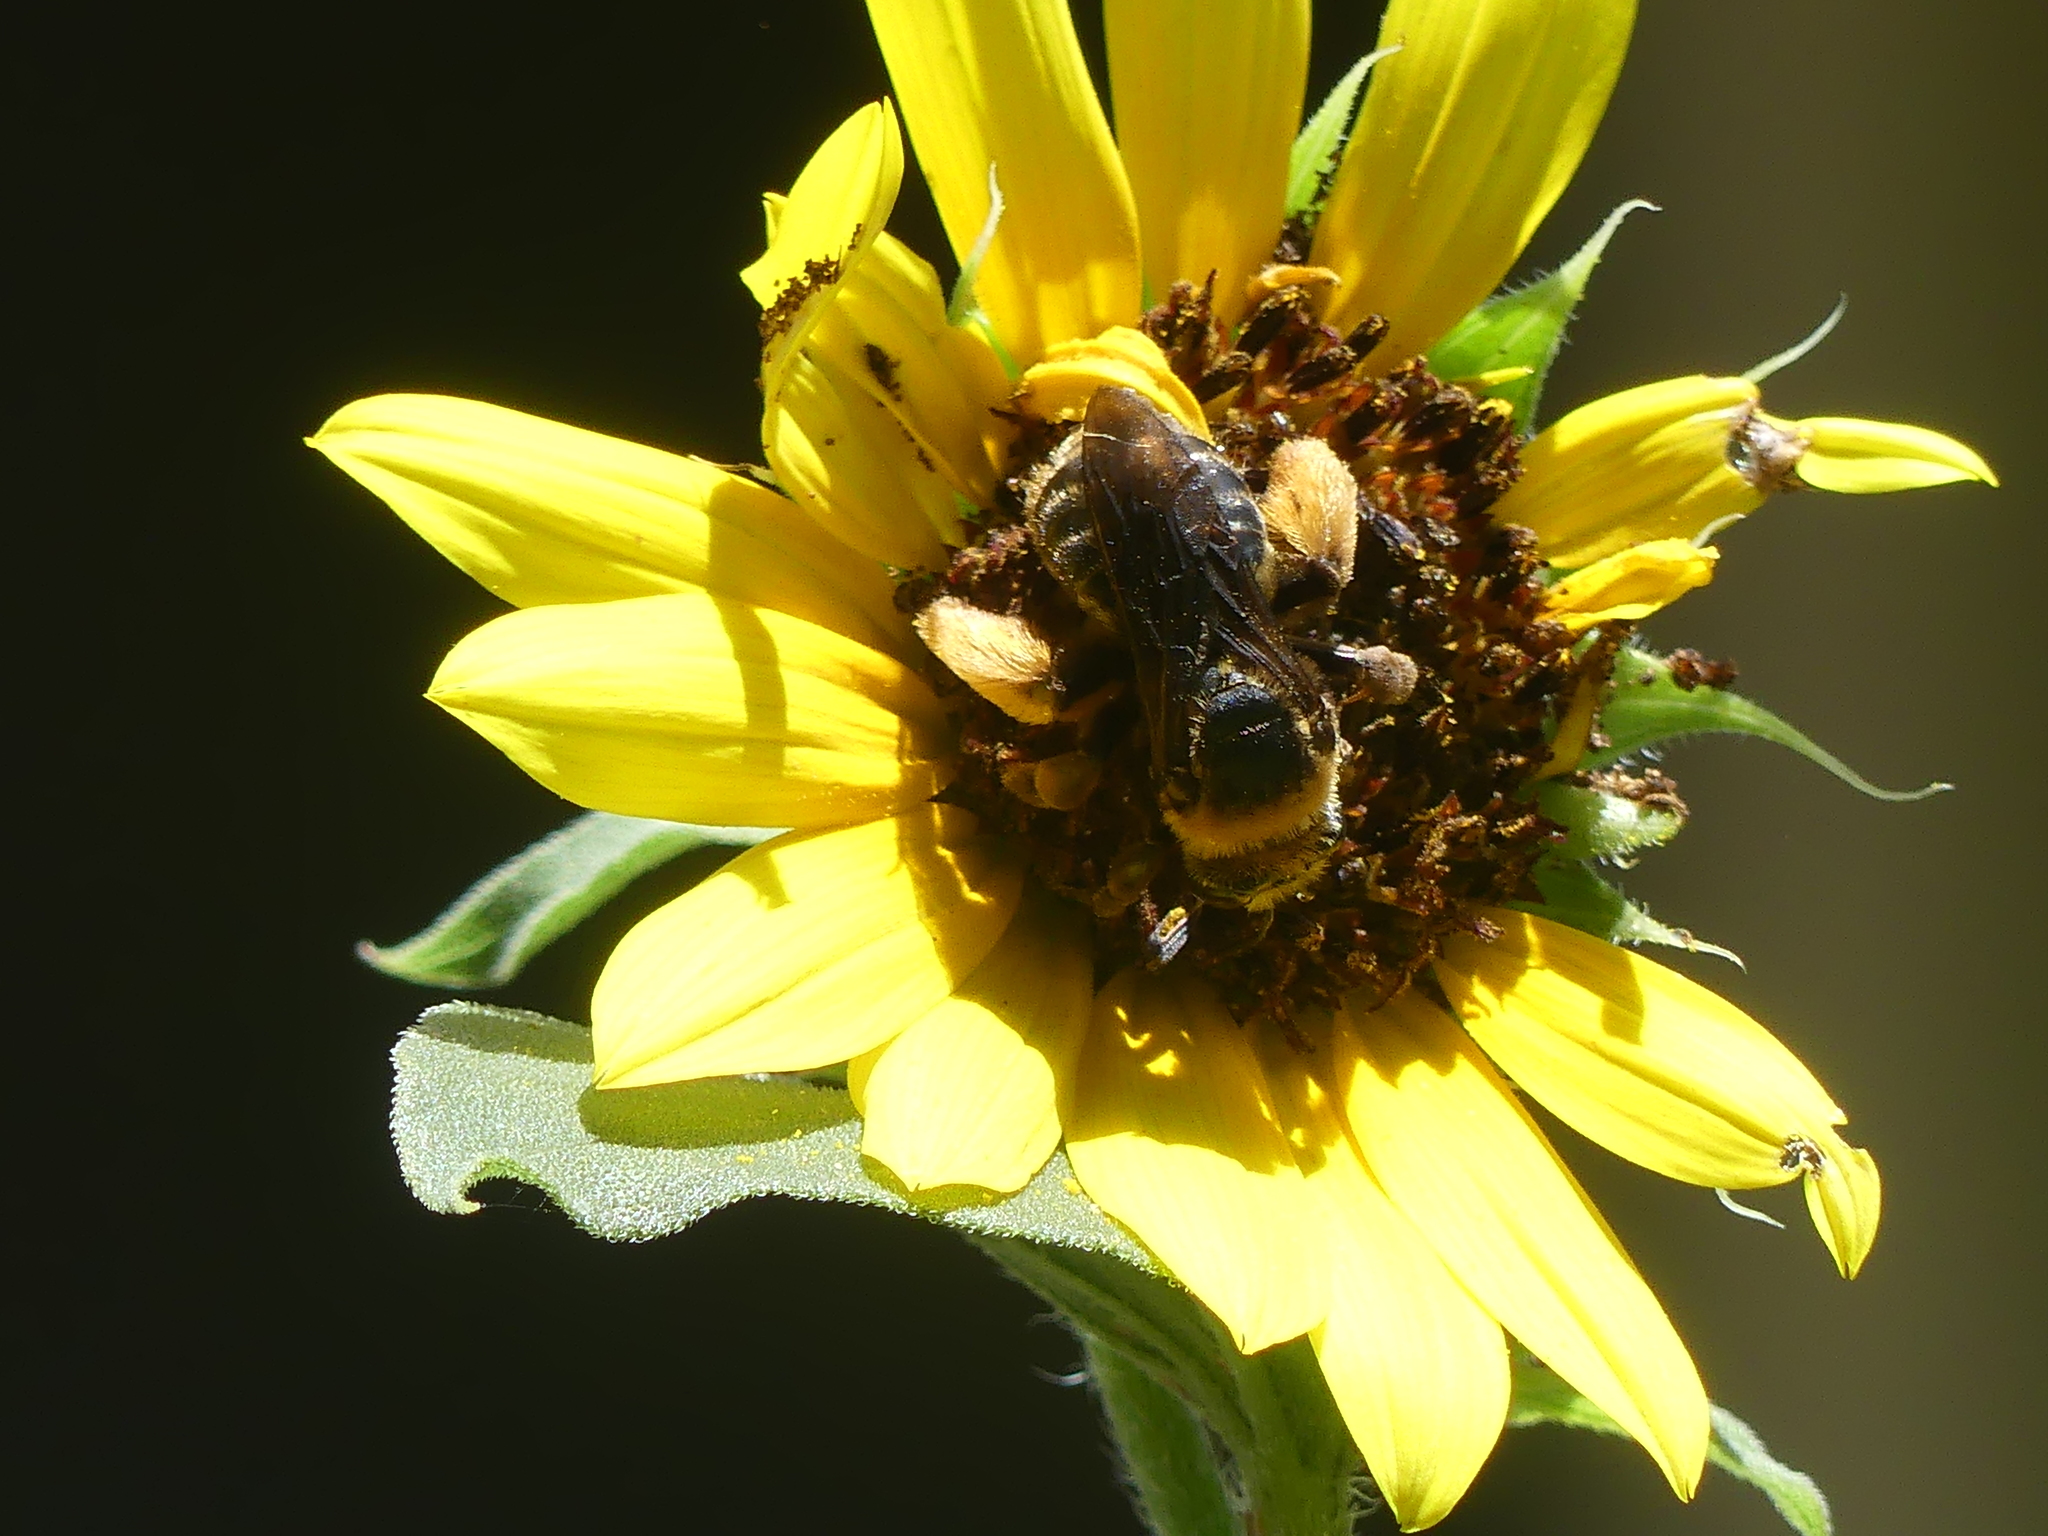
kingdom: Animalia
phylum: Arthropoda
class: Insecta
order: Hymenoptera
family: Apidae
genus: Svastra
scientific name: Svastra obliqua
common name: Oblique longhorn
